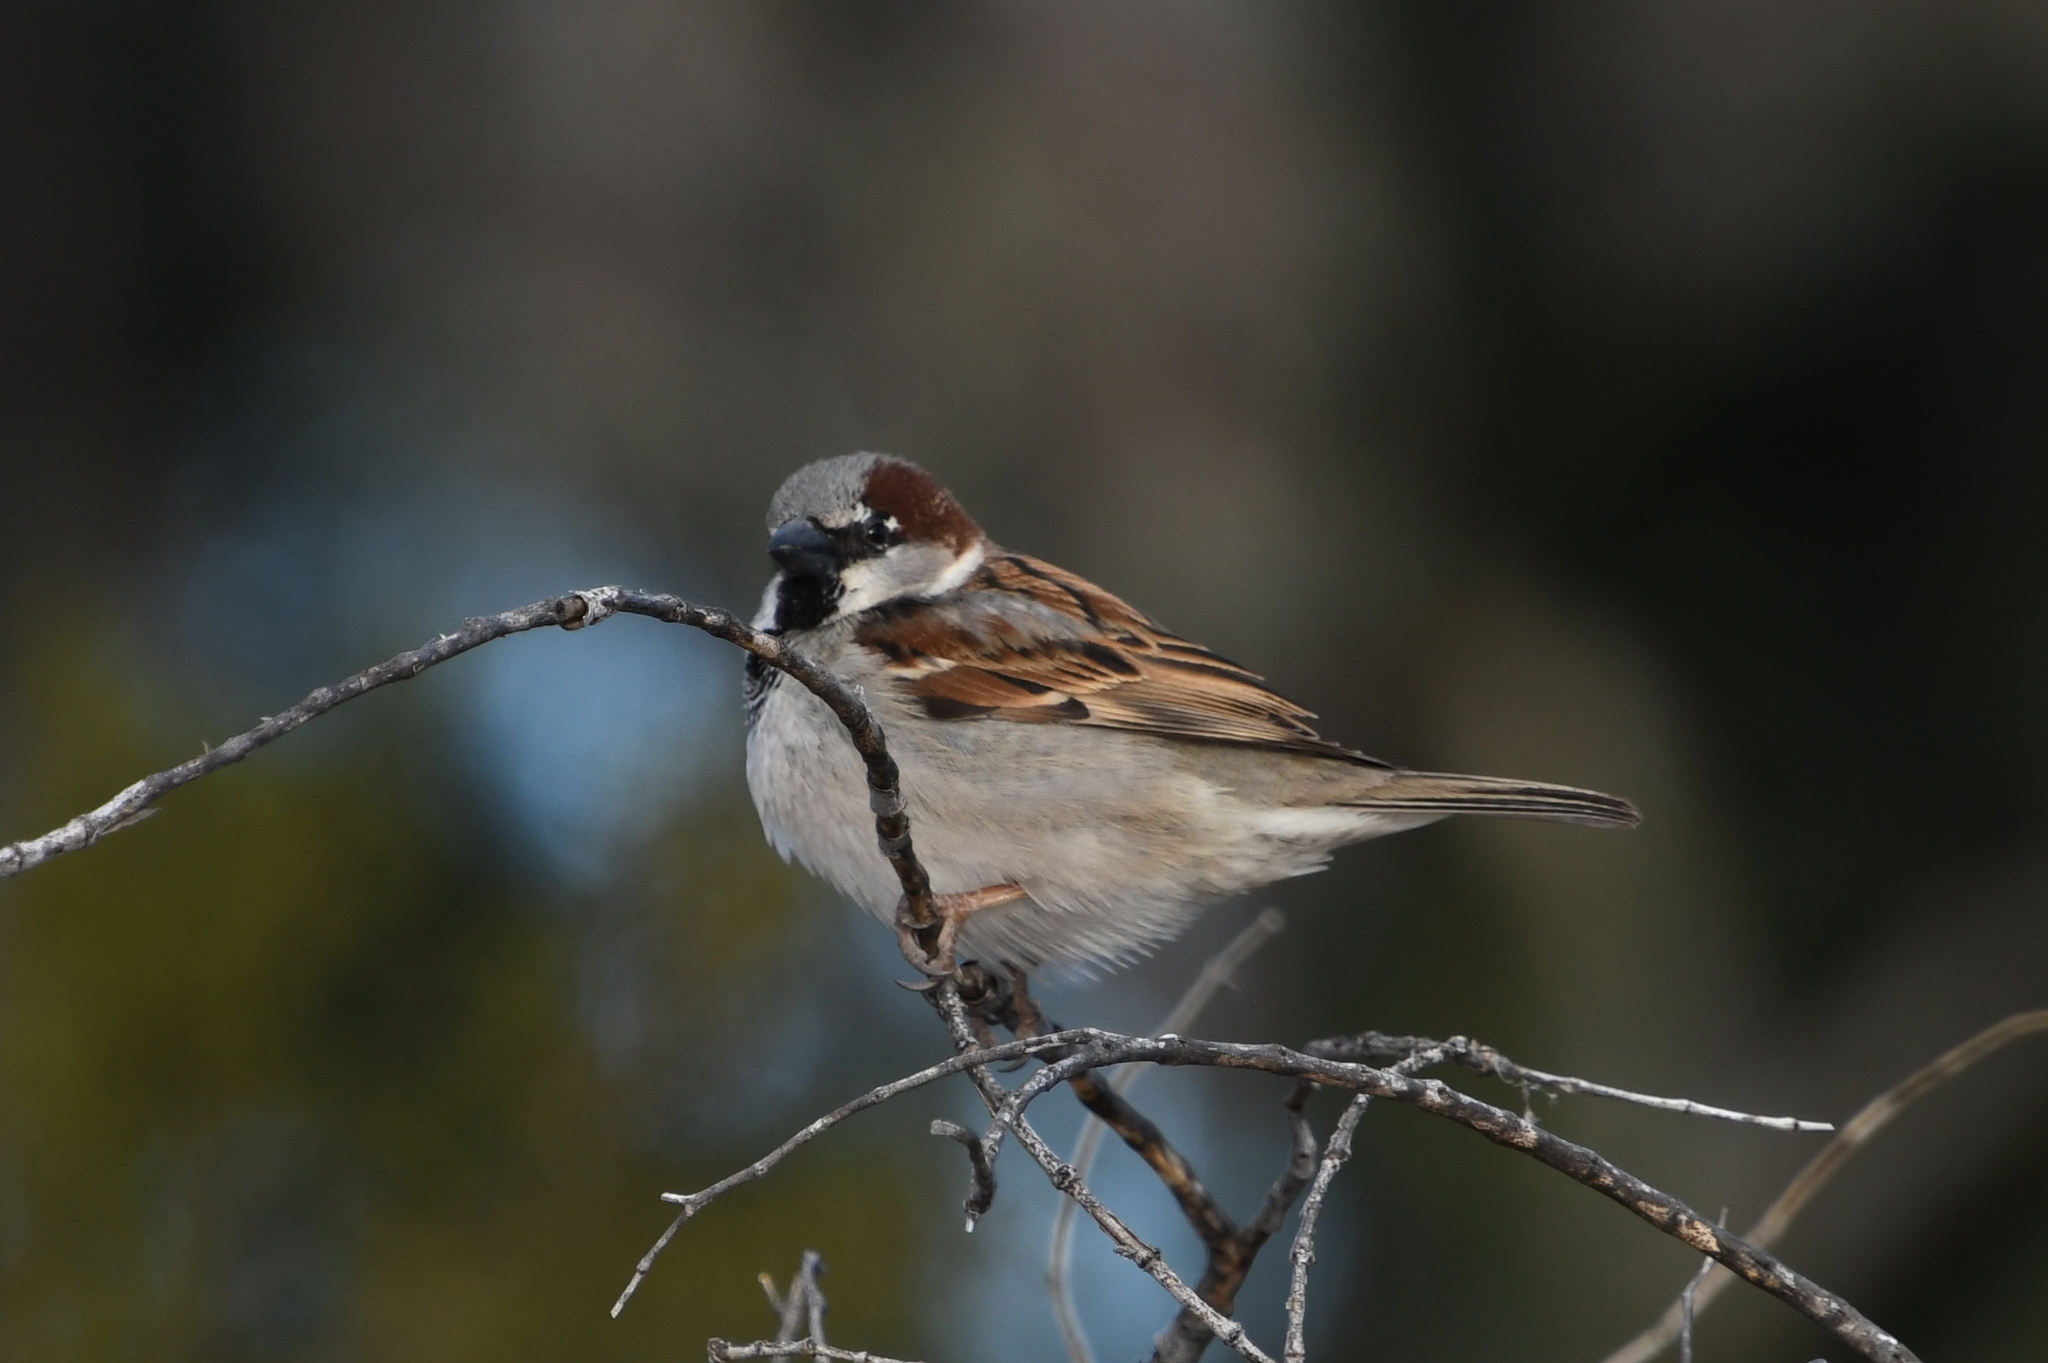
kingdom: Animalia
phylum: Chordata
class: Aves
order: Passeriformes
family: Passeridae
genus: Passer
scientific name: Passer domesticus
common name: House sparrow
